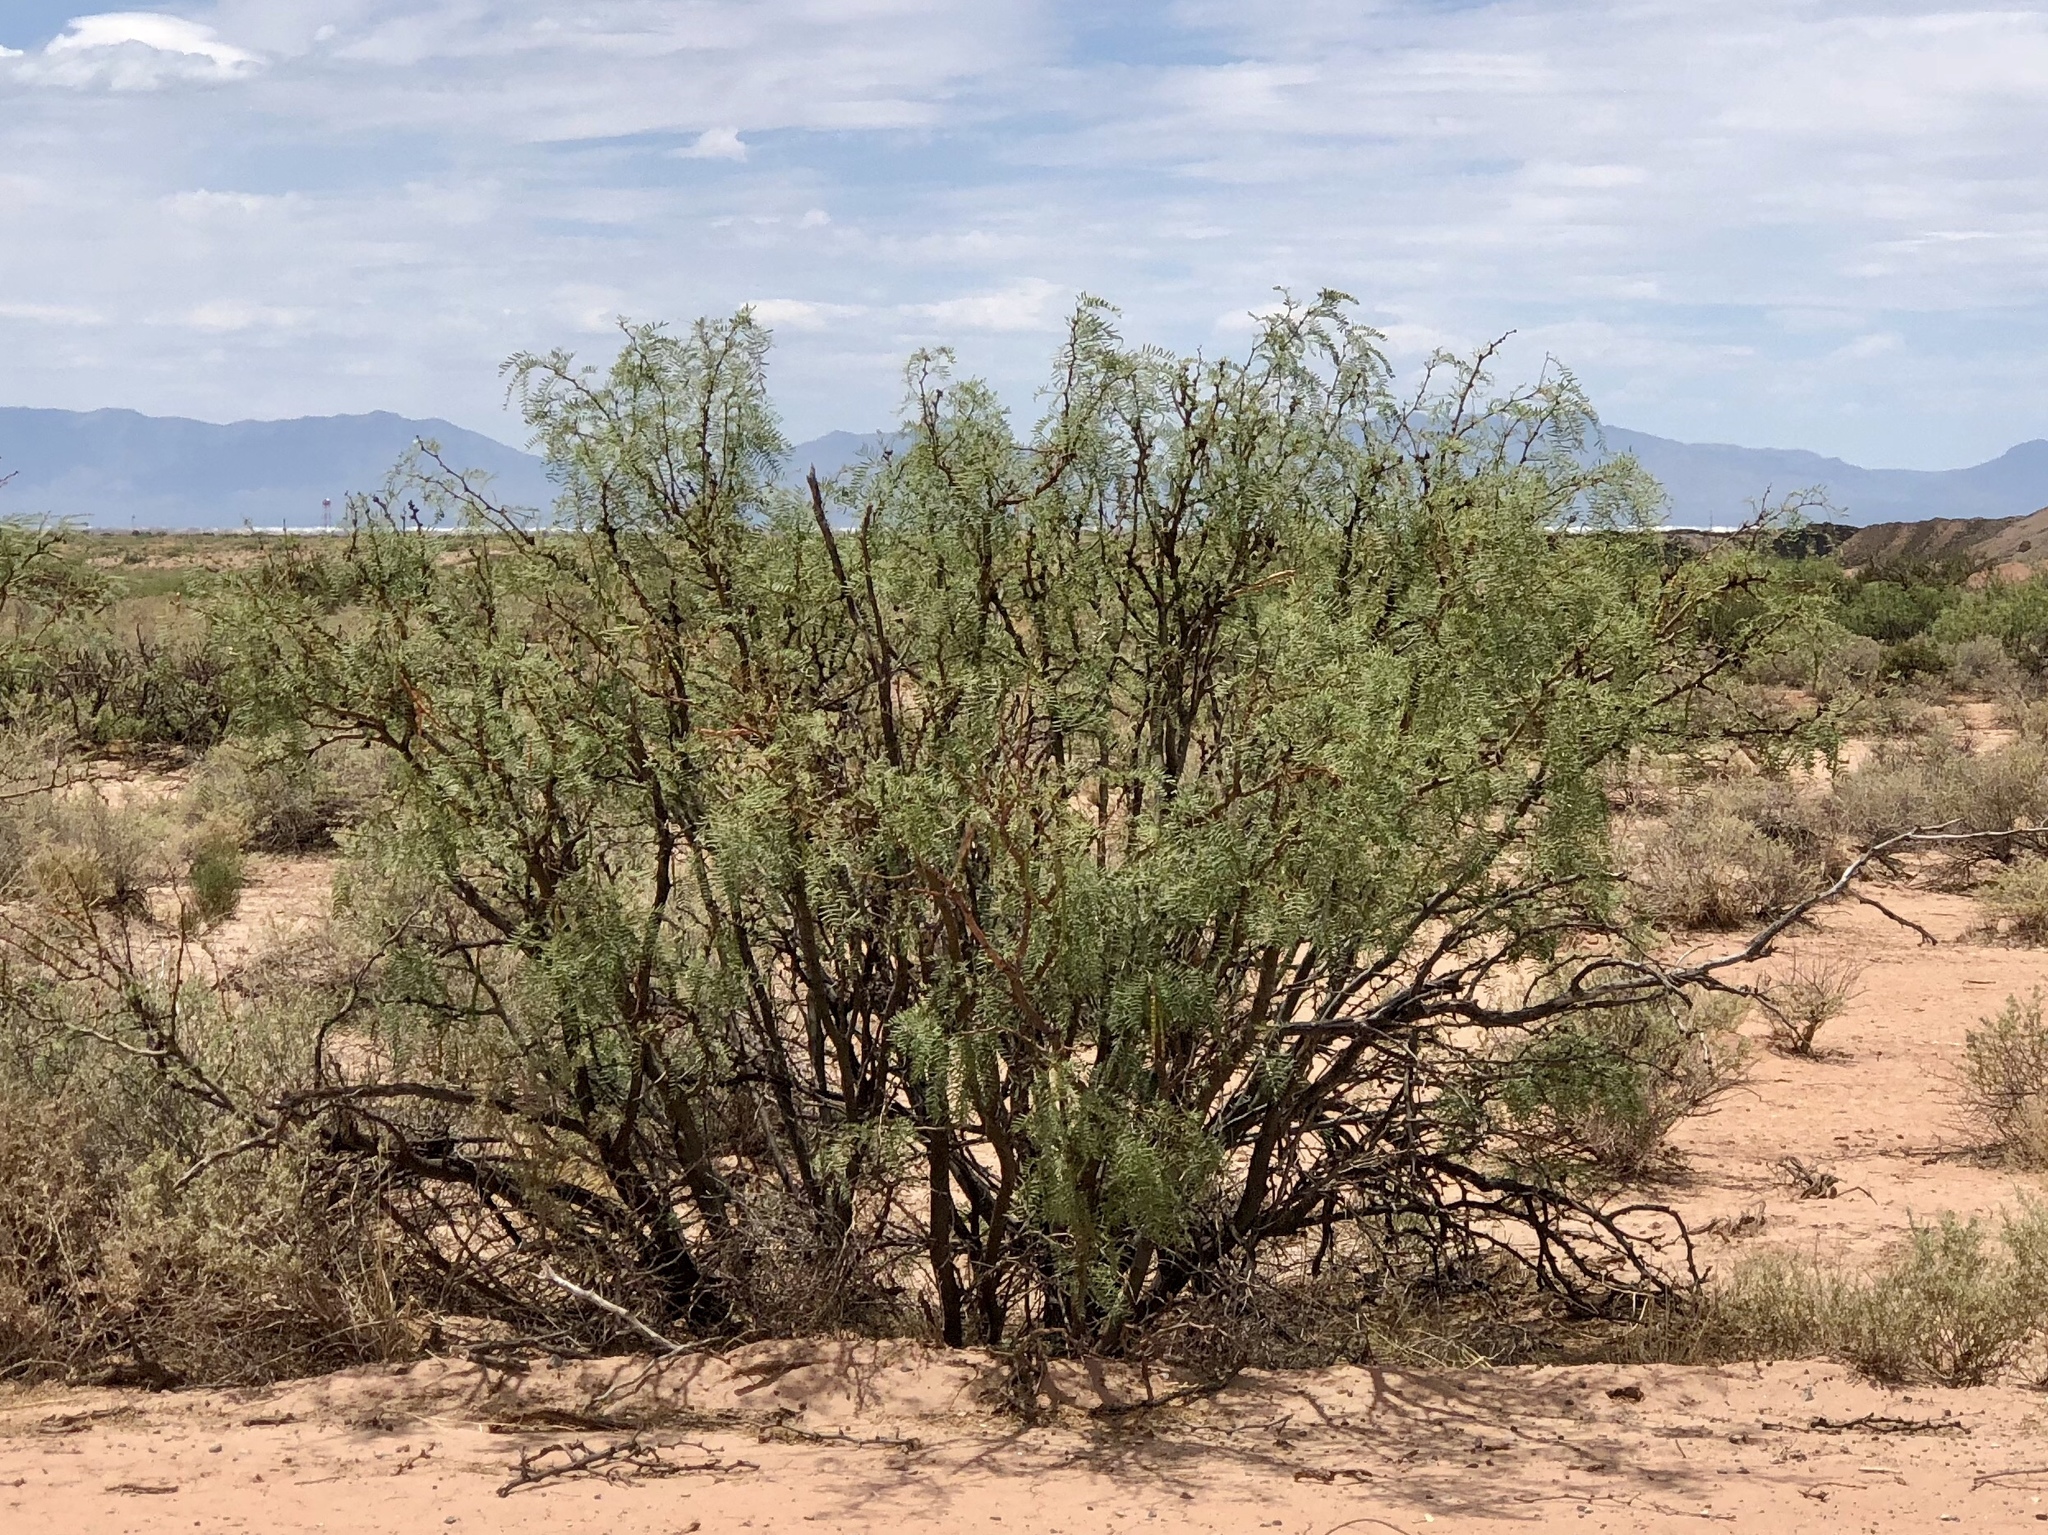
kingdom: Plantae
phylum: Tracheophyta
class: Magnoliopsida
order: Fabales
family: Fabaceae
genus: Prosopis
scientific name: Prosopis glandulosa
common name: Honey mesquite
